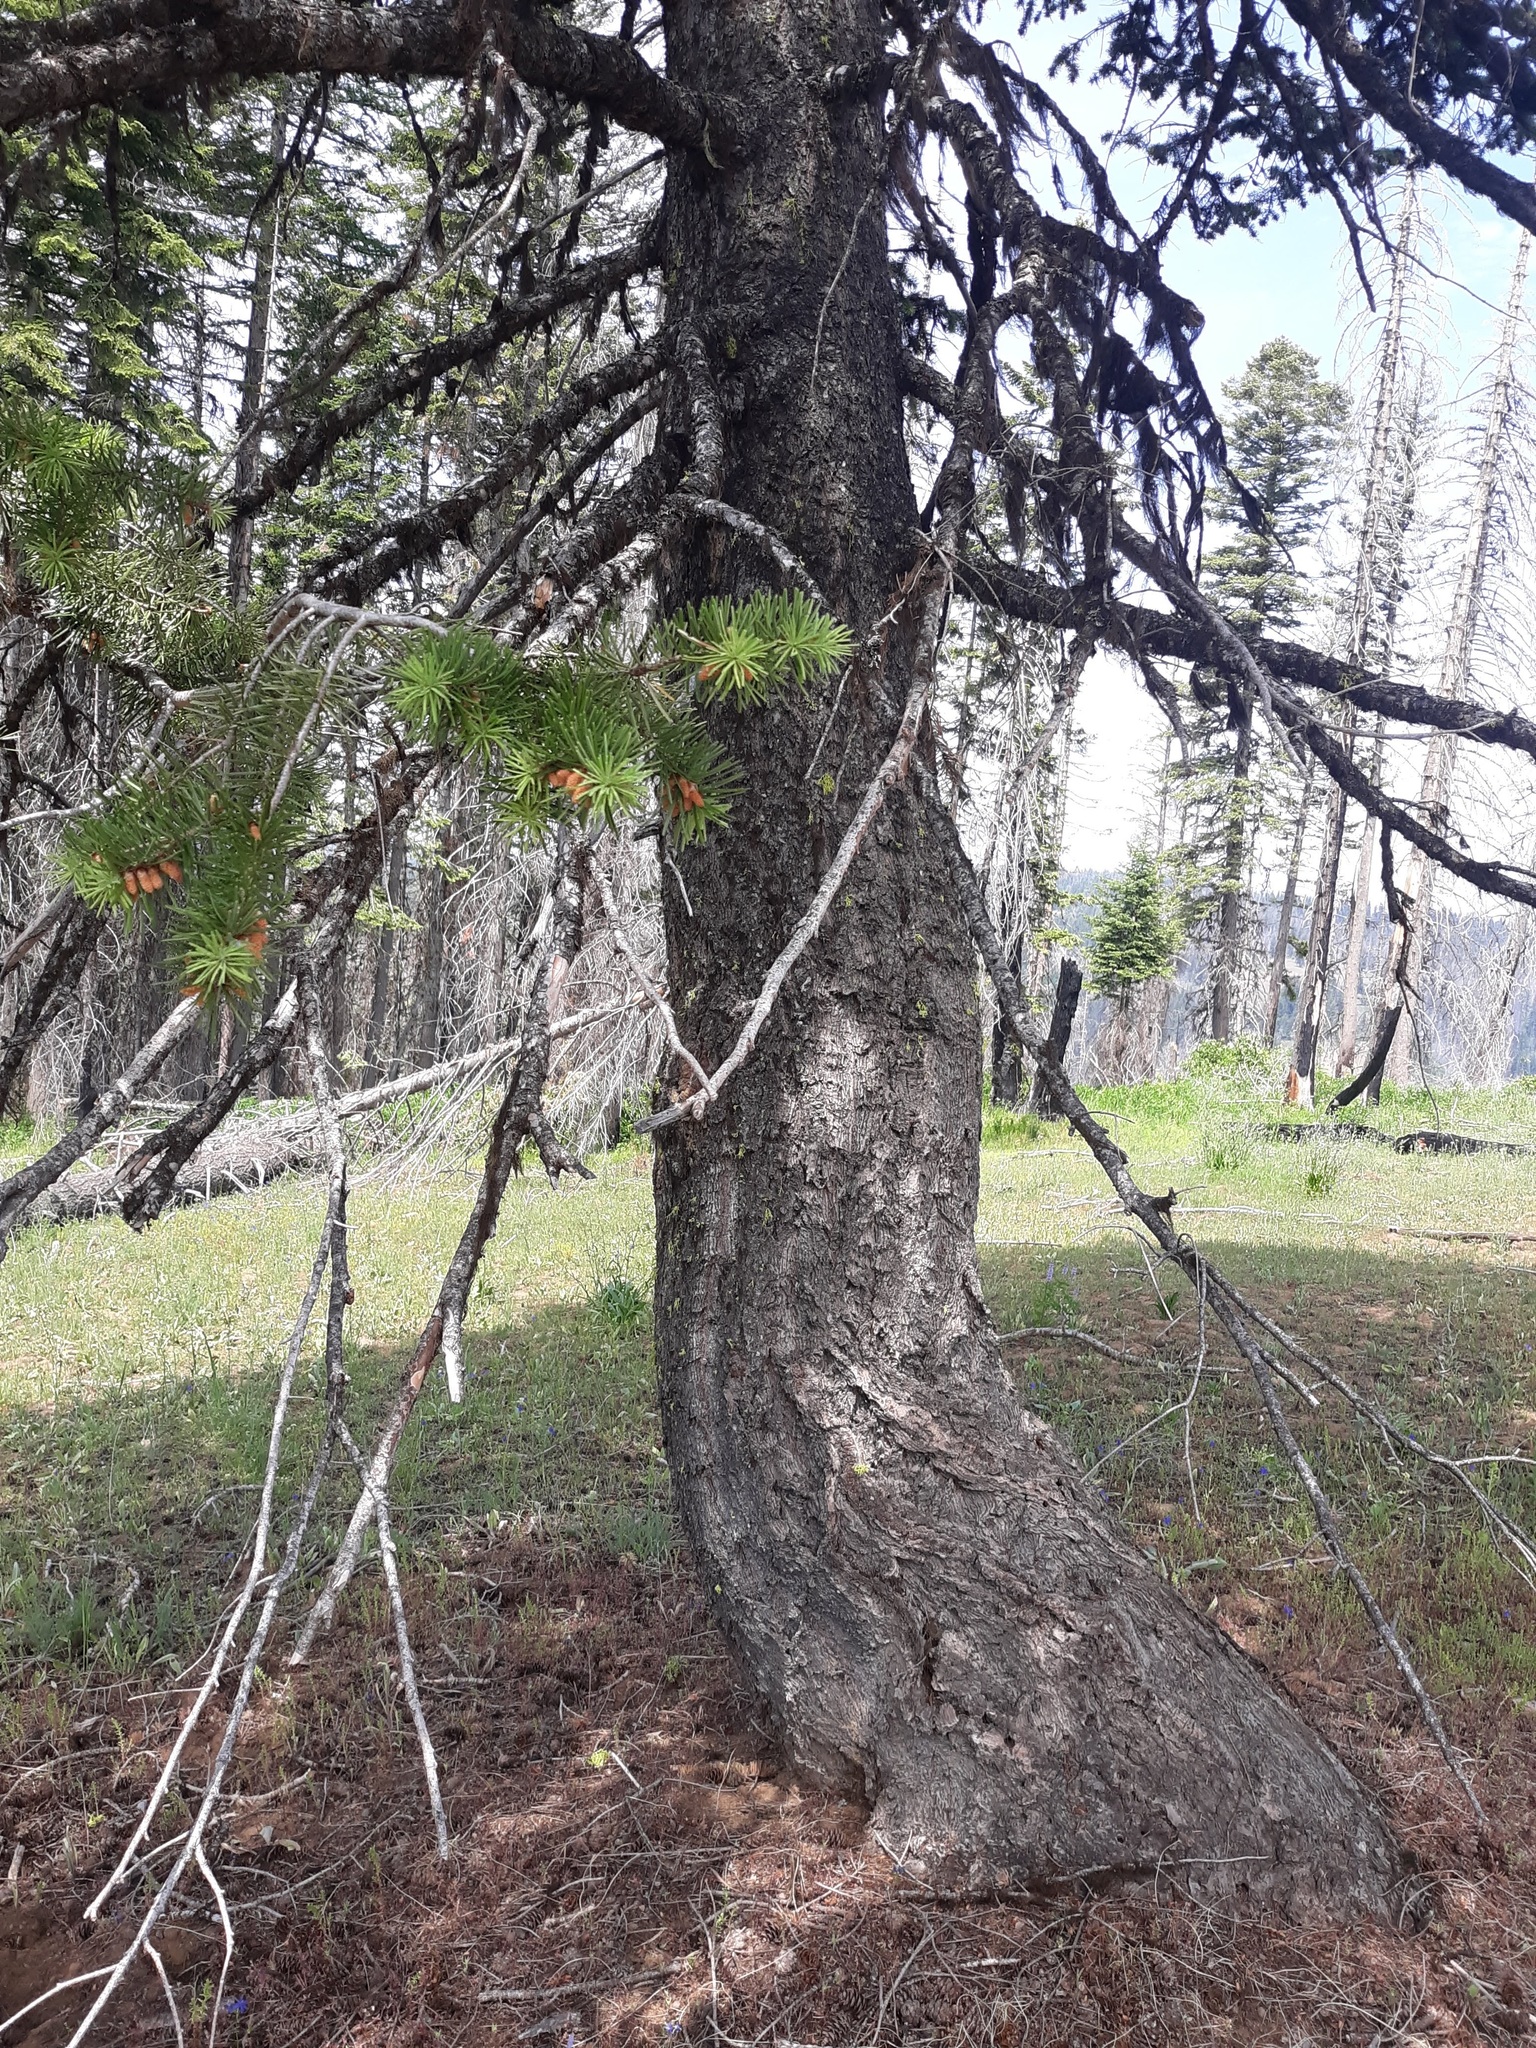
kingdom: Plantae
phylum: Tracheophyta
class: Pinopsida
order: Pinales
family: Pinaceae
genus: Pseudotsuga
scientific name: Pseudotsuga menziesii
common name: Douglas fir
